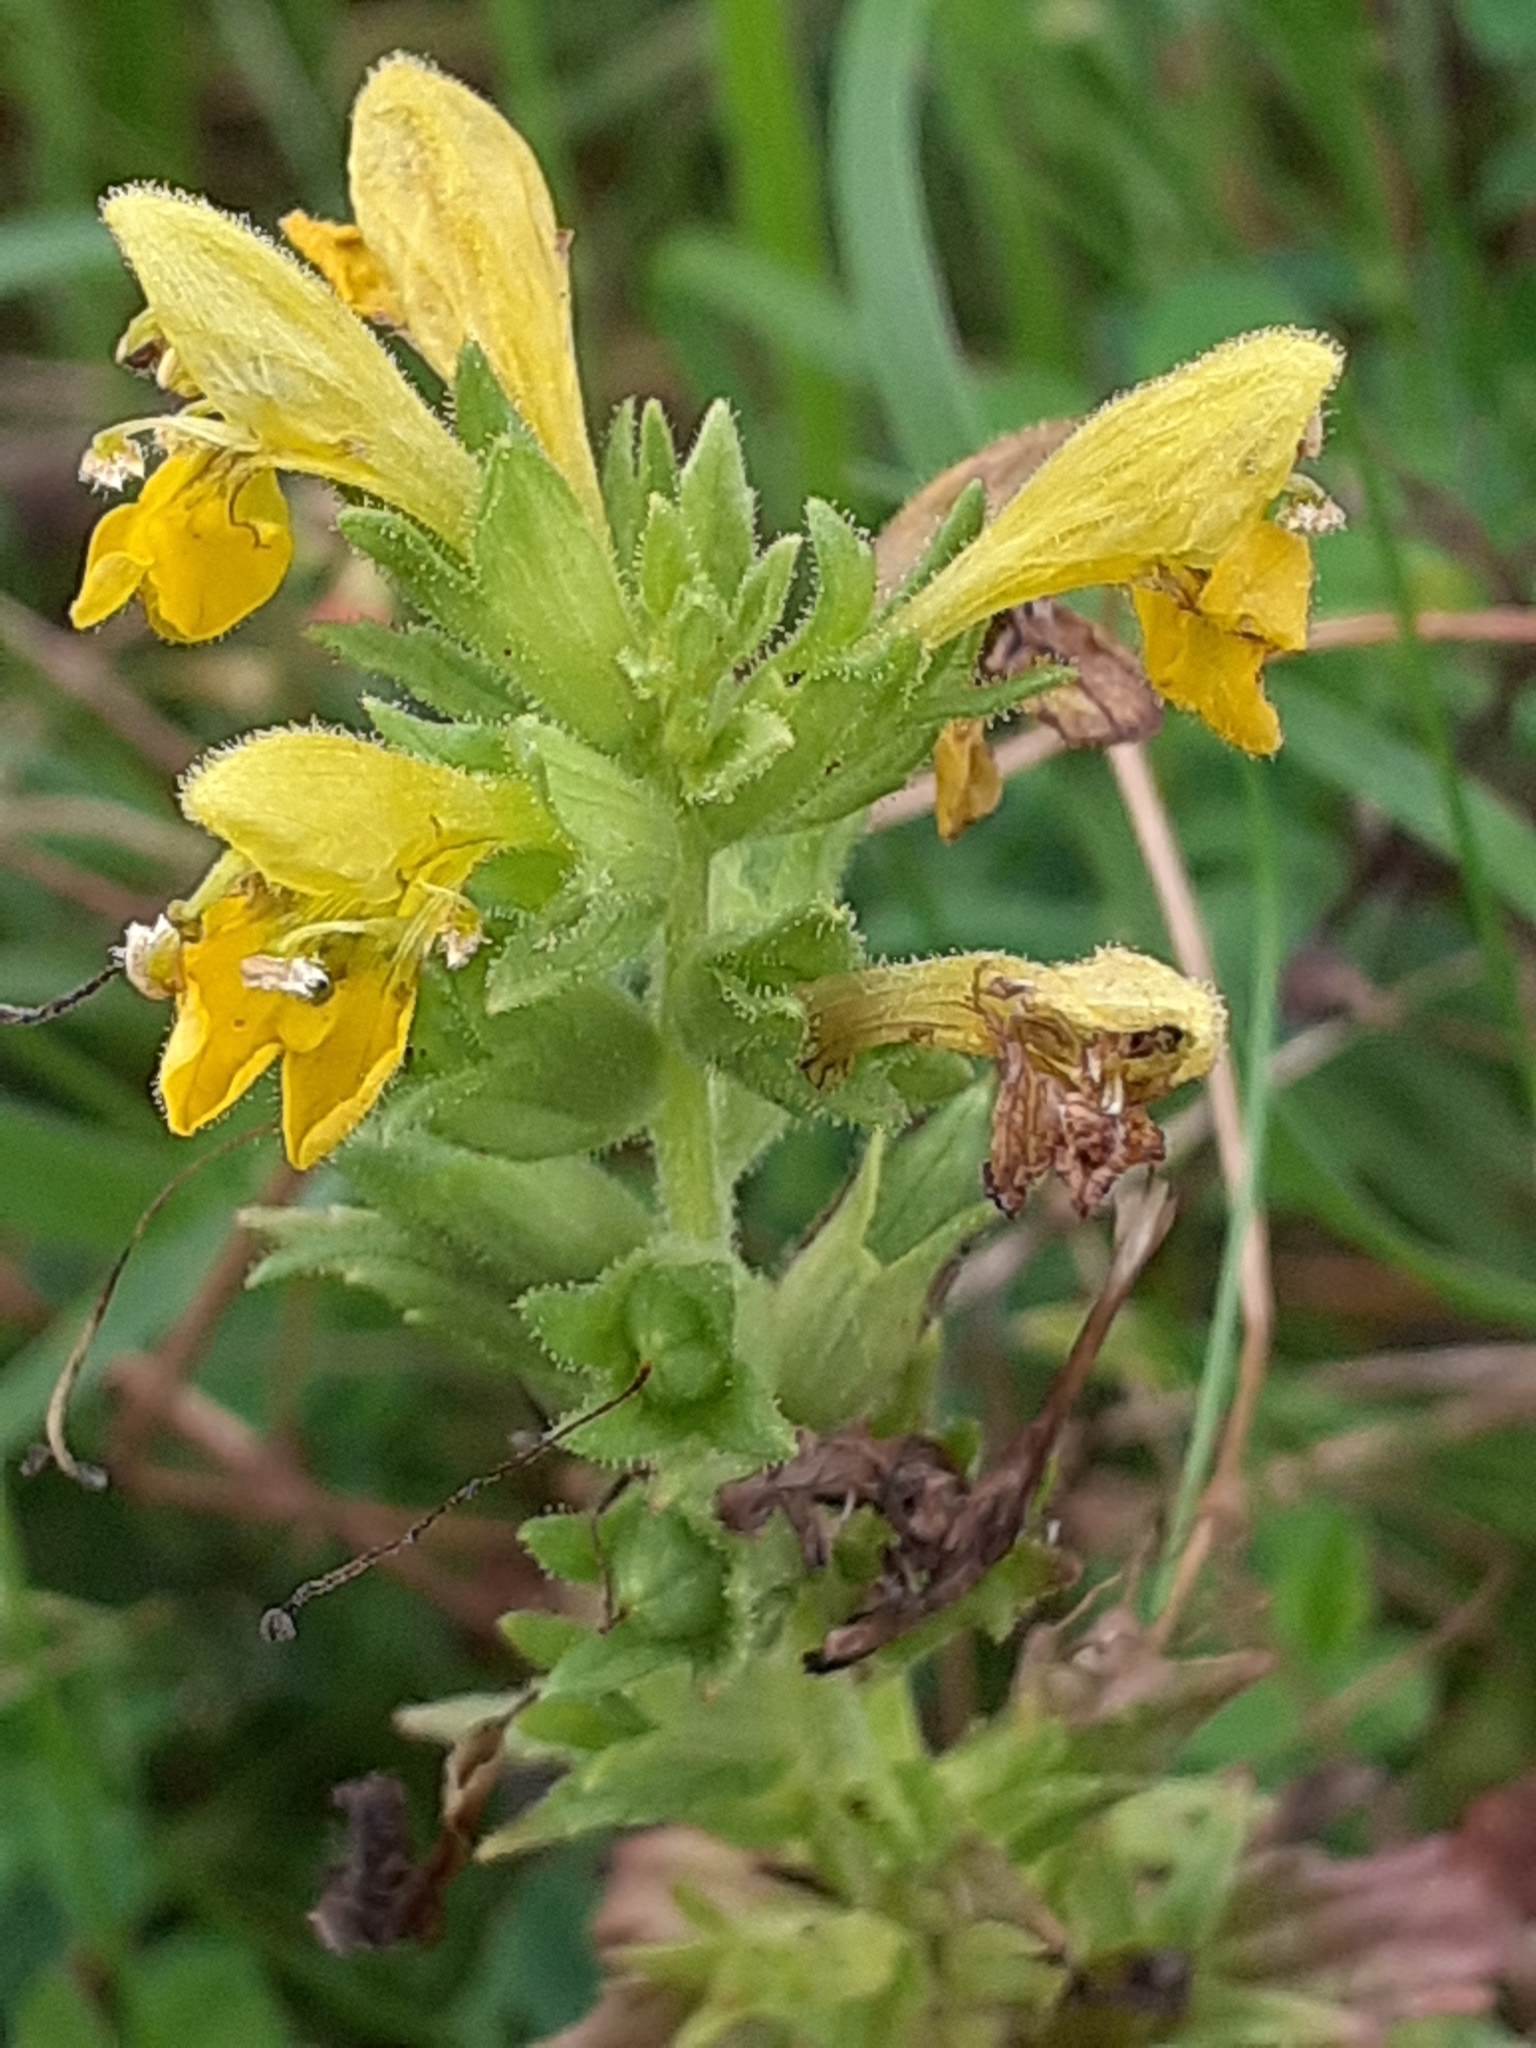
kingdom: Plantae
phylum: Tracheophyta
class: Magnoliopsida
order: Lamiales
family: Orobanchaceae
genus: Bellardia
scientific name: Bellardia viscosa
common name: Sticky parentucellia
